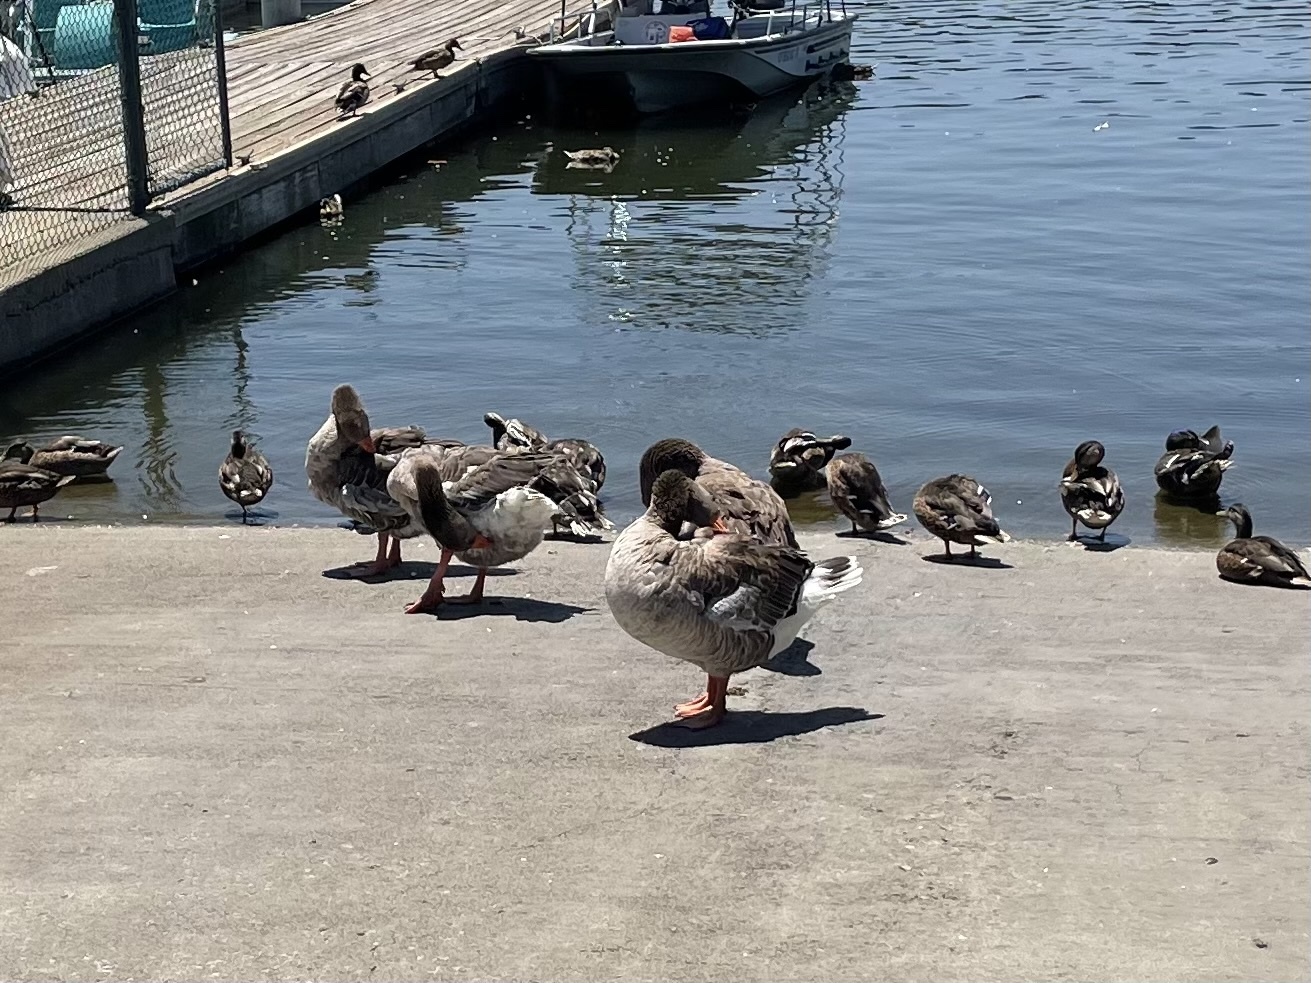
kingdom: Animalia
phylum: Chordata
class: Aves
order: Anseriformes
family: Anatidae
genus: Anser
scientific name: Anser anser
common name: Greylag goose
